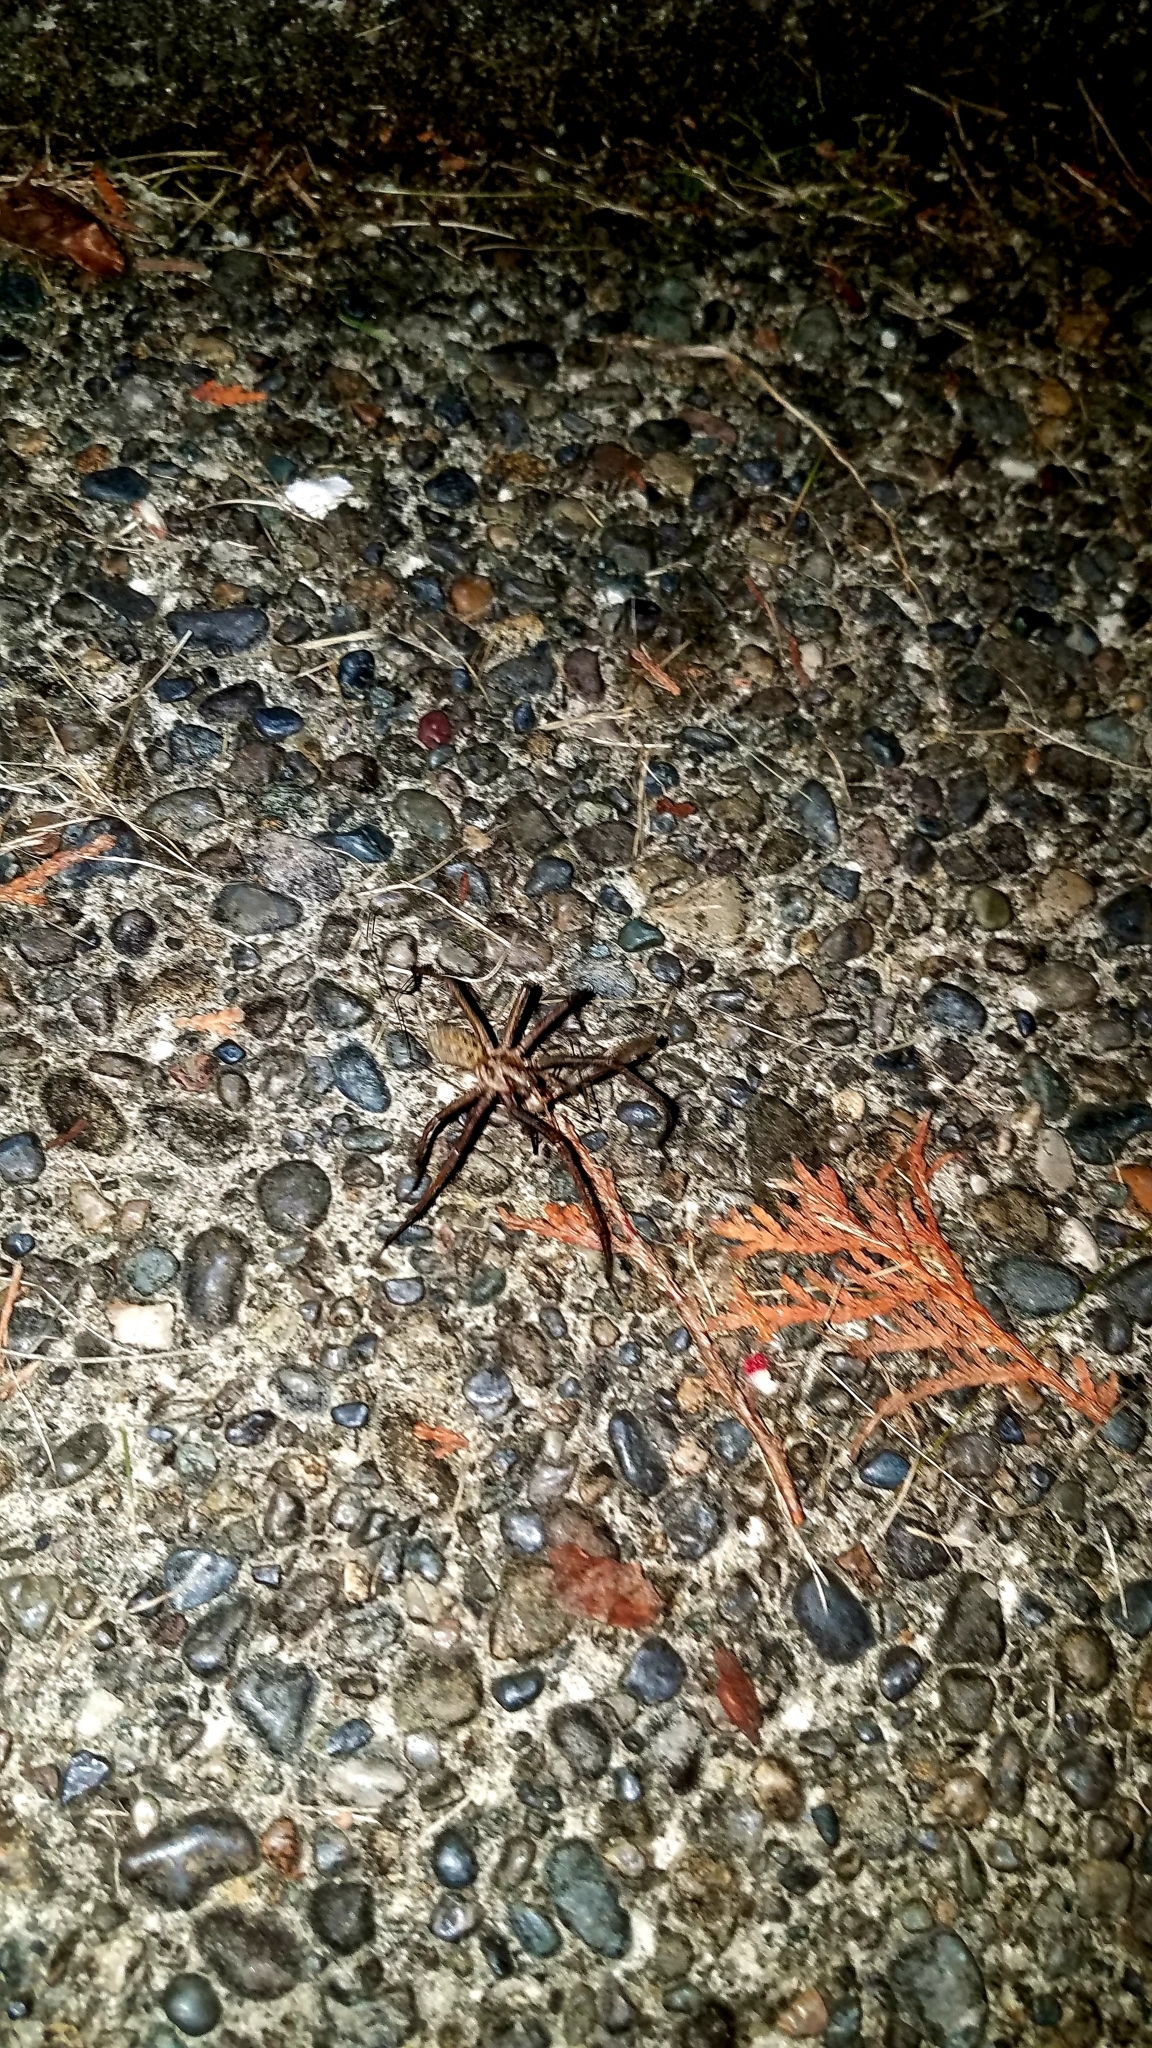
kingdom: Animalia
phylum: Arthropoda
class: Arachnida
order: Araneae
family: Agelenidae
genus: Eratigena
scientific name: Eratigena duellica
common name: Giant house spider
